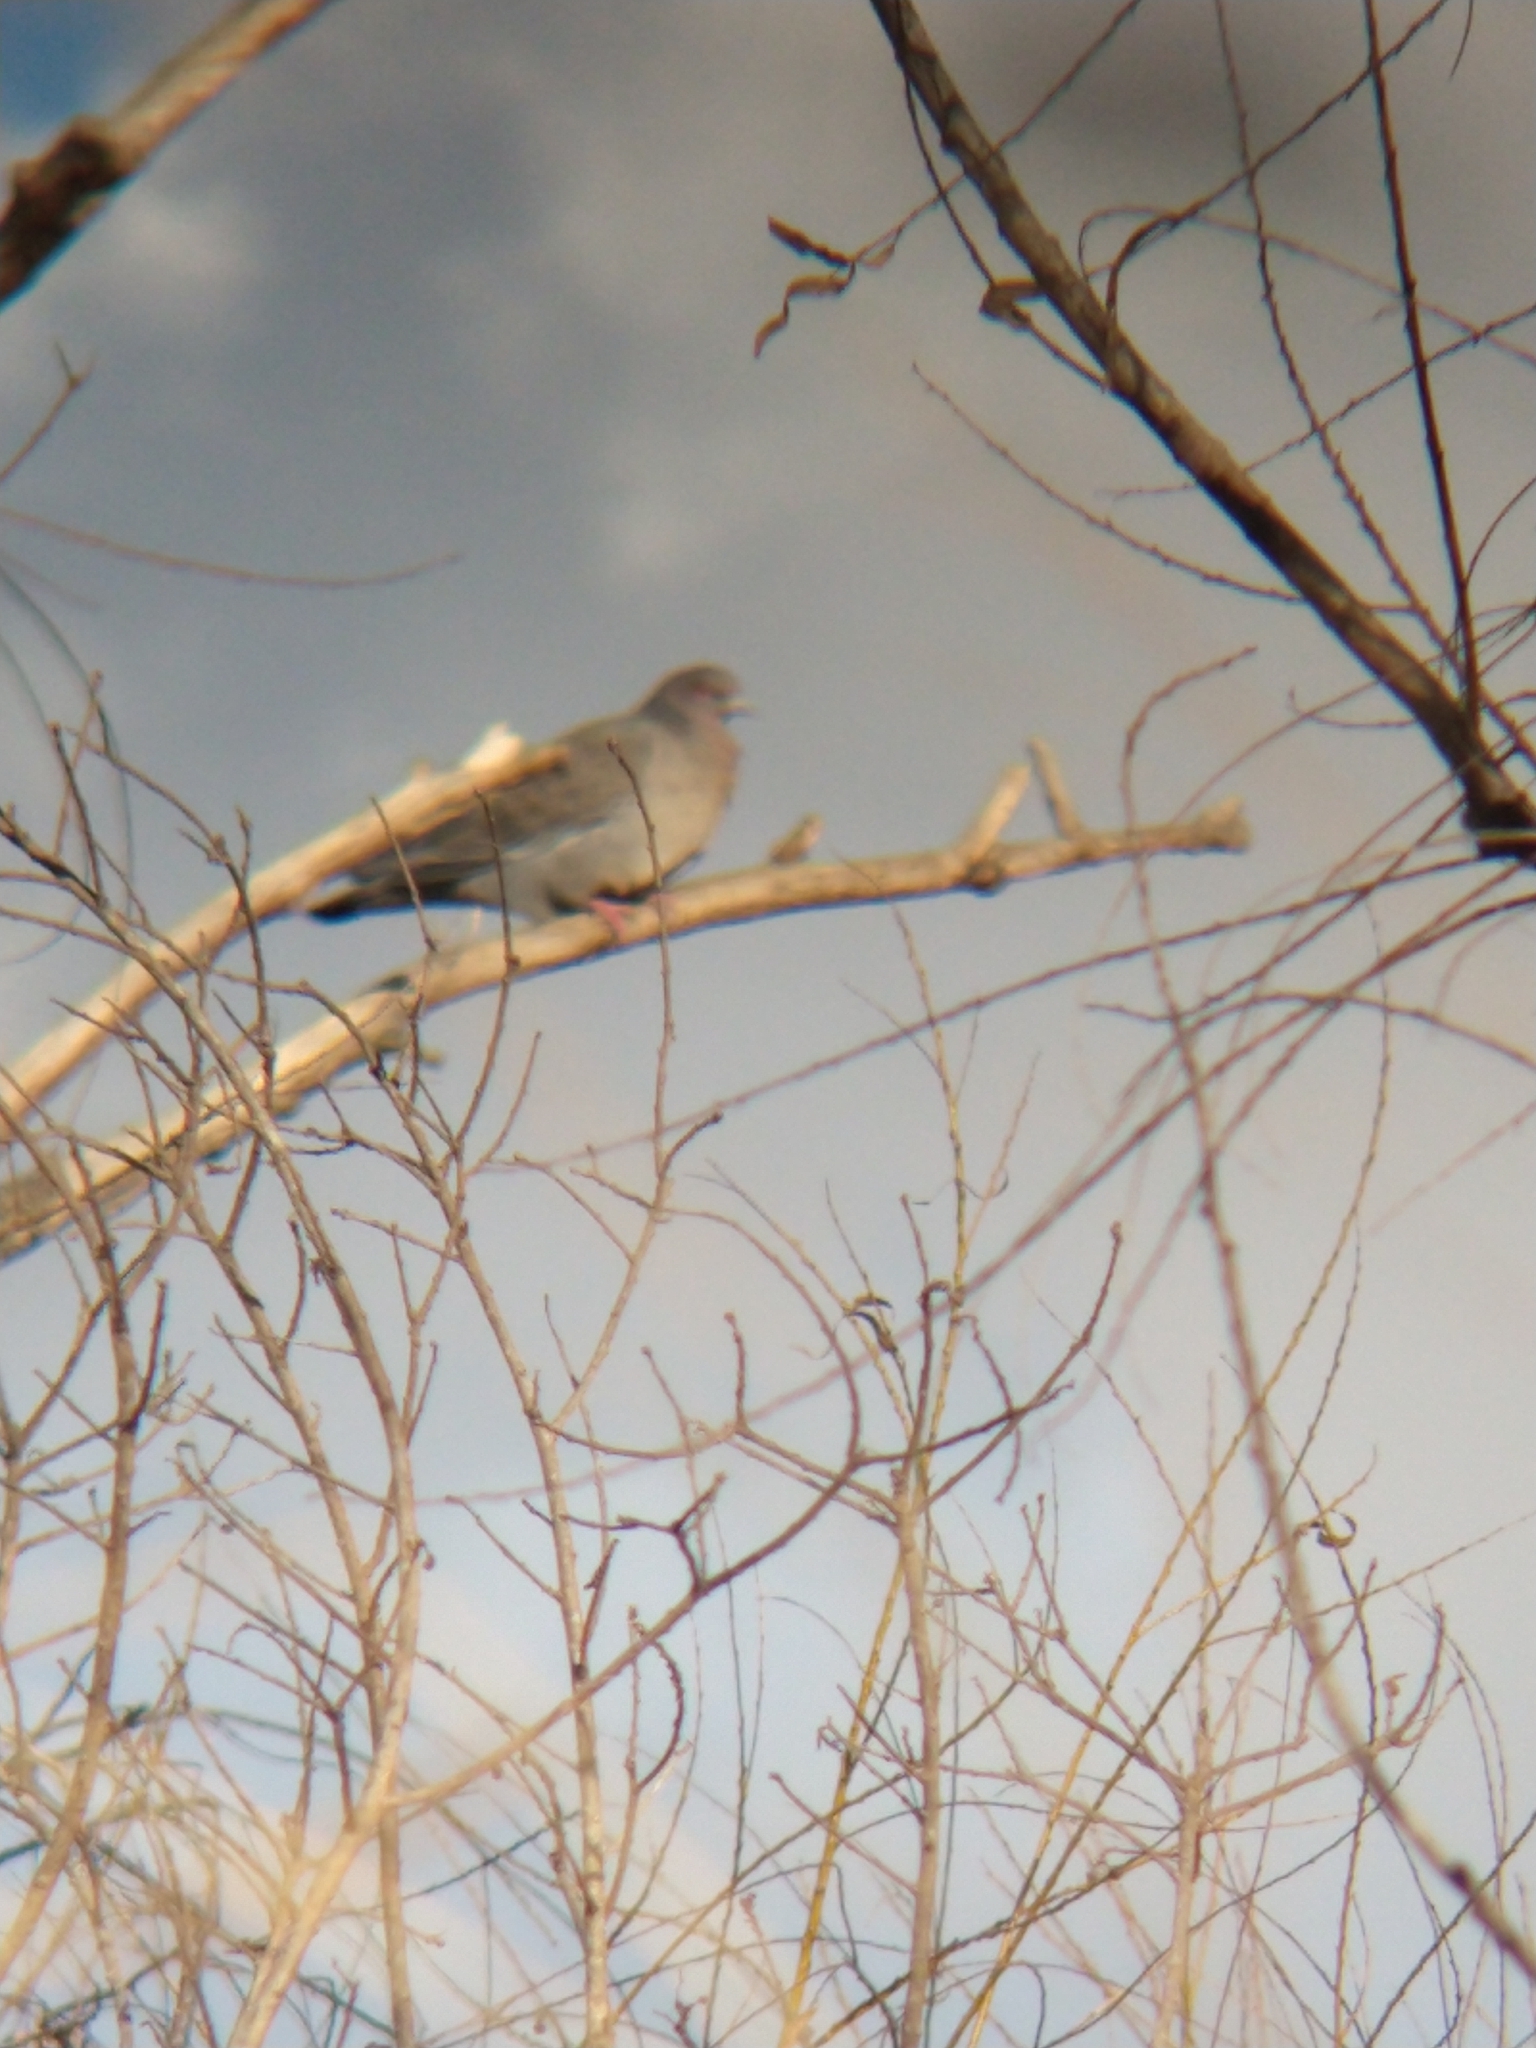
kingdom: Animalia
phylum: Chordata
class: Aves
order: Columbiformes
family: Columbidae
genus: Patagioenas
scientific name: Patagioenas picazuro
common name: Picazuro pigeon
